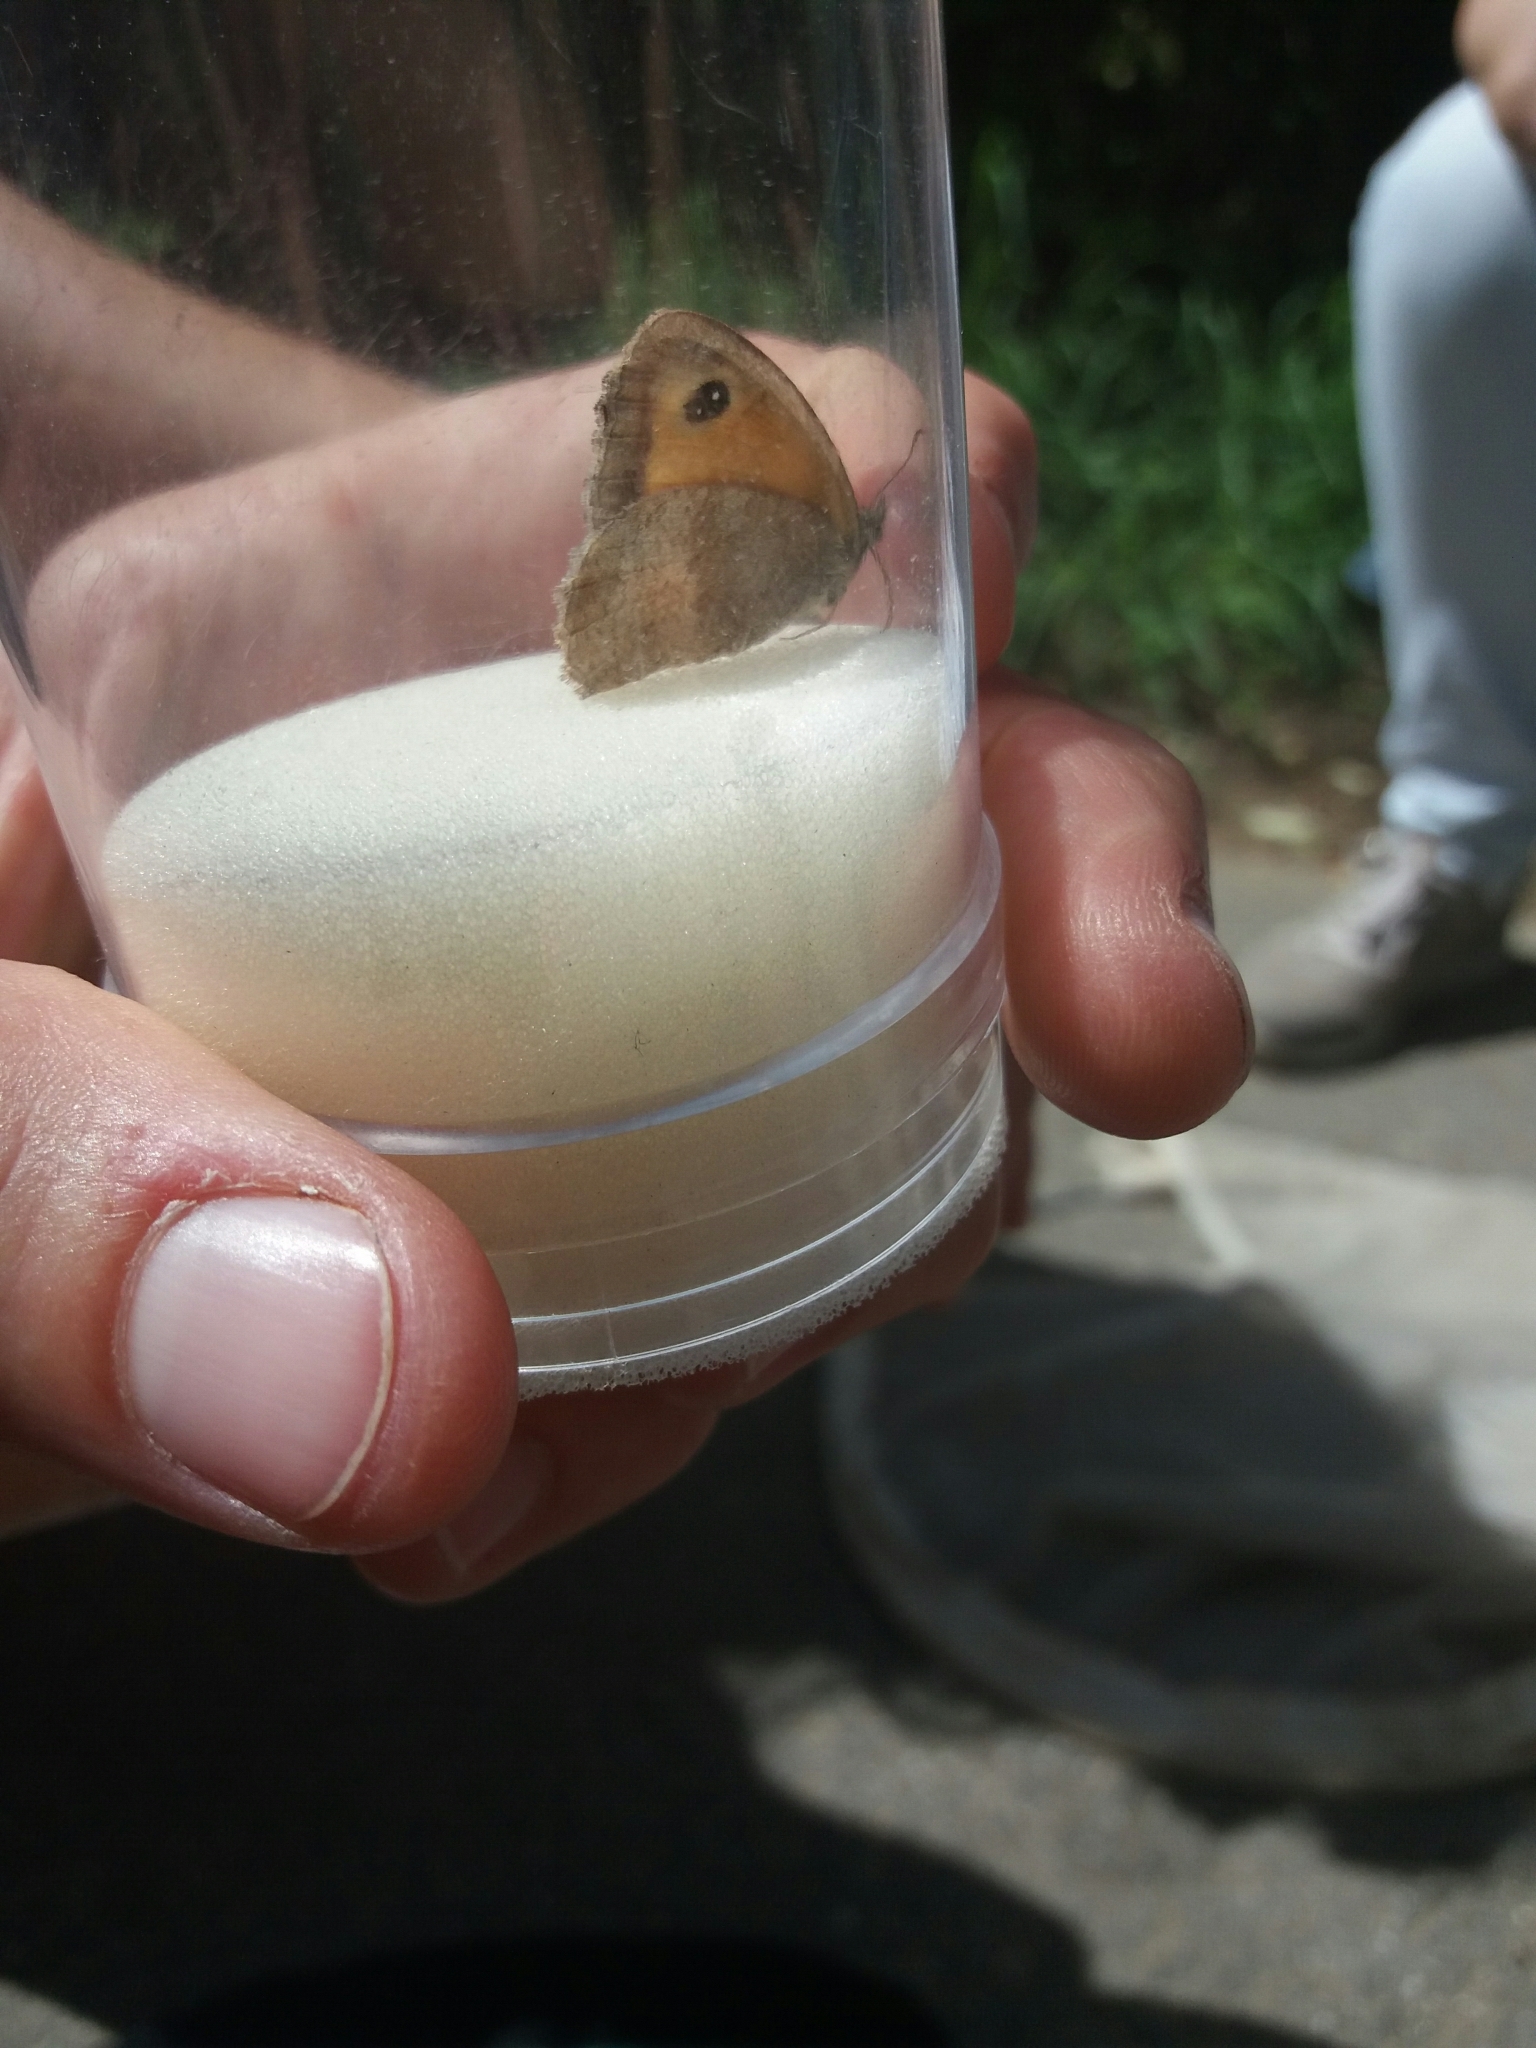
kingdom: Animalia
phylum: Arthropoda
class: Insecta
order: Lepidoptera
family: Nymphalidae
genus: Pyronia
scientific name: Pyronia tithonus
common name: Gatekeeper
